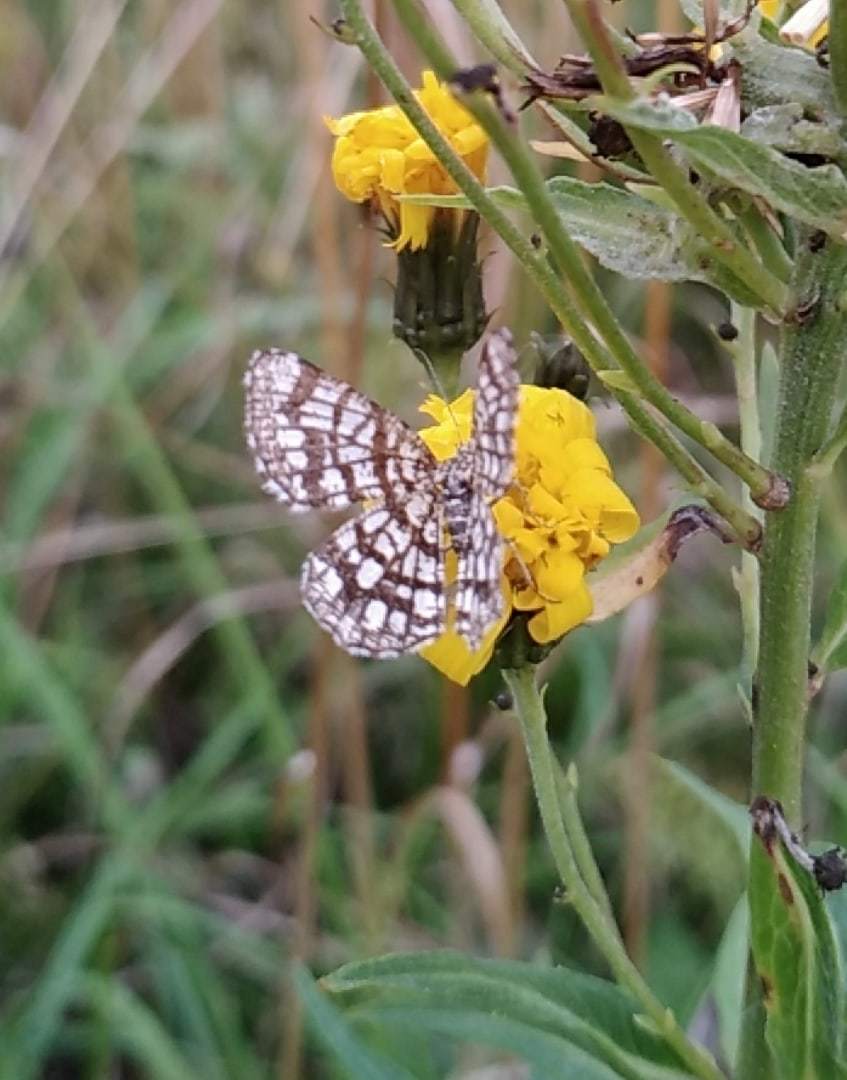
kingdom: Animalia
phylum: Arthropoda
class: Insecta
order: Lepidoptera
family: Geometridae
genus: Chiasmia
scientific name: Chiasmia clathrata
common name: Latticed heath
